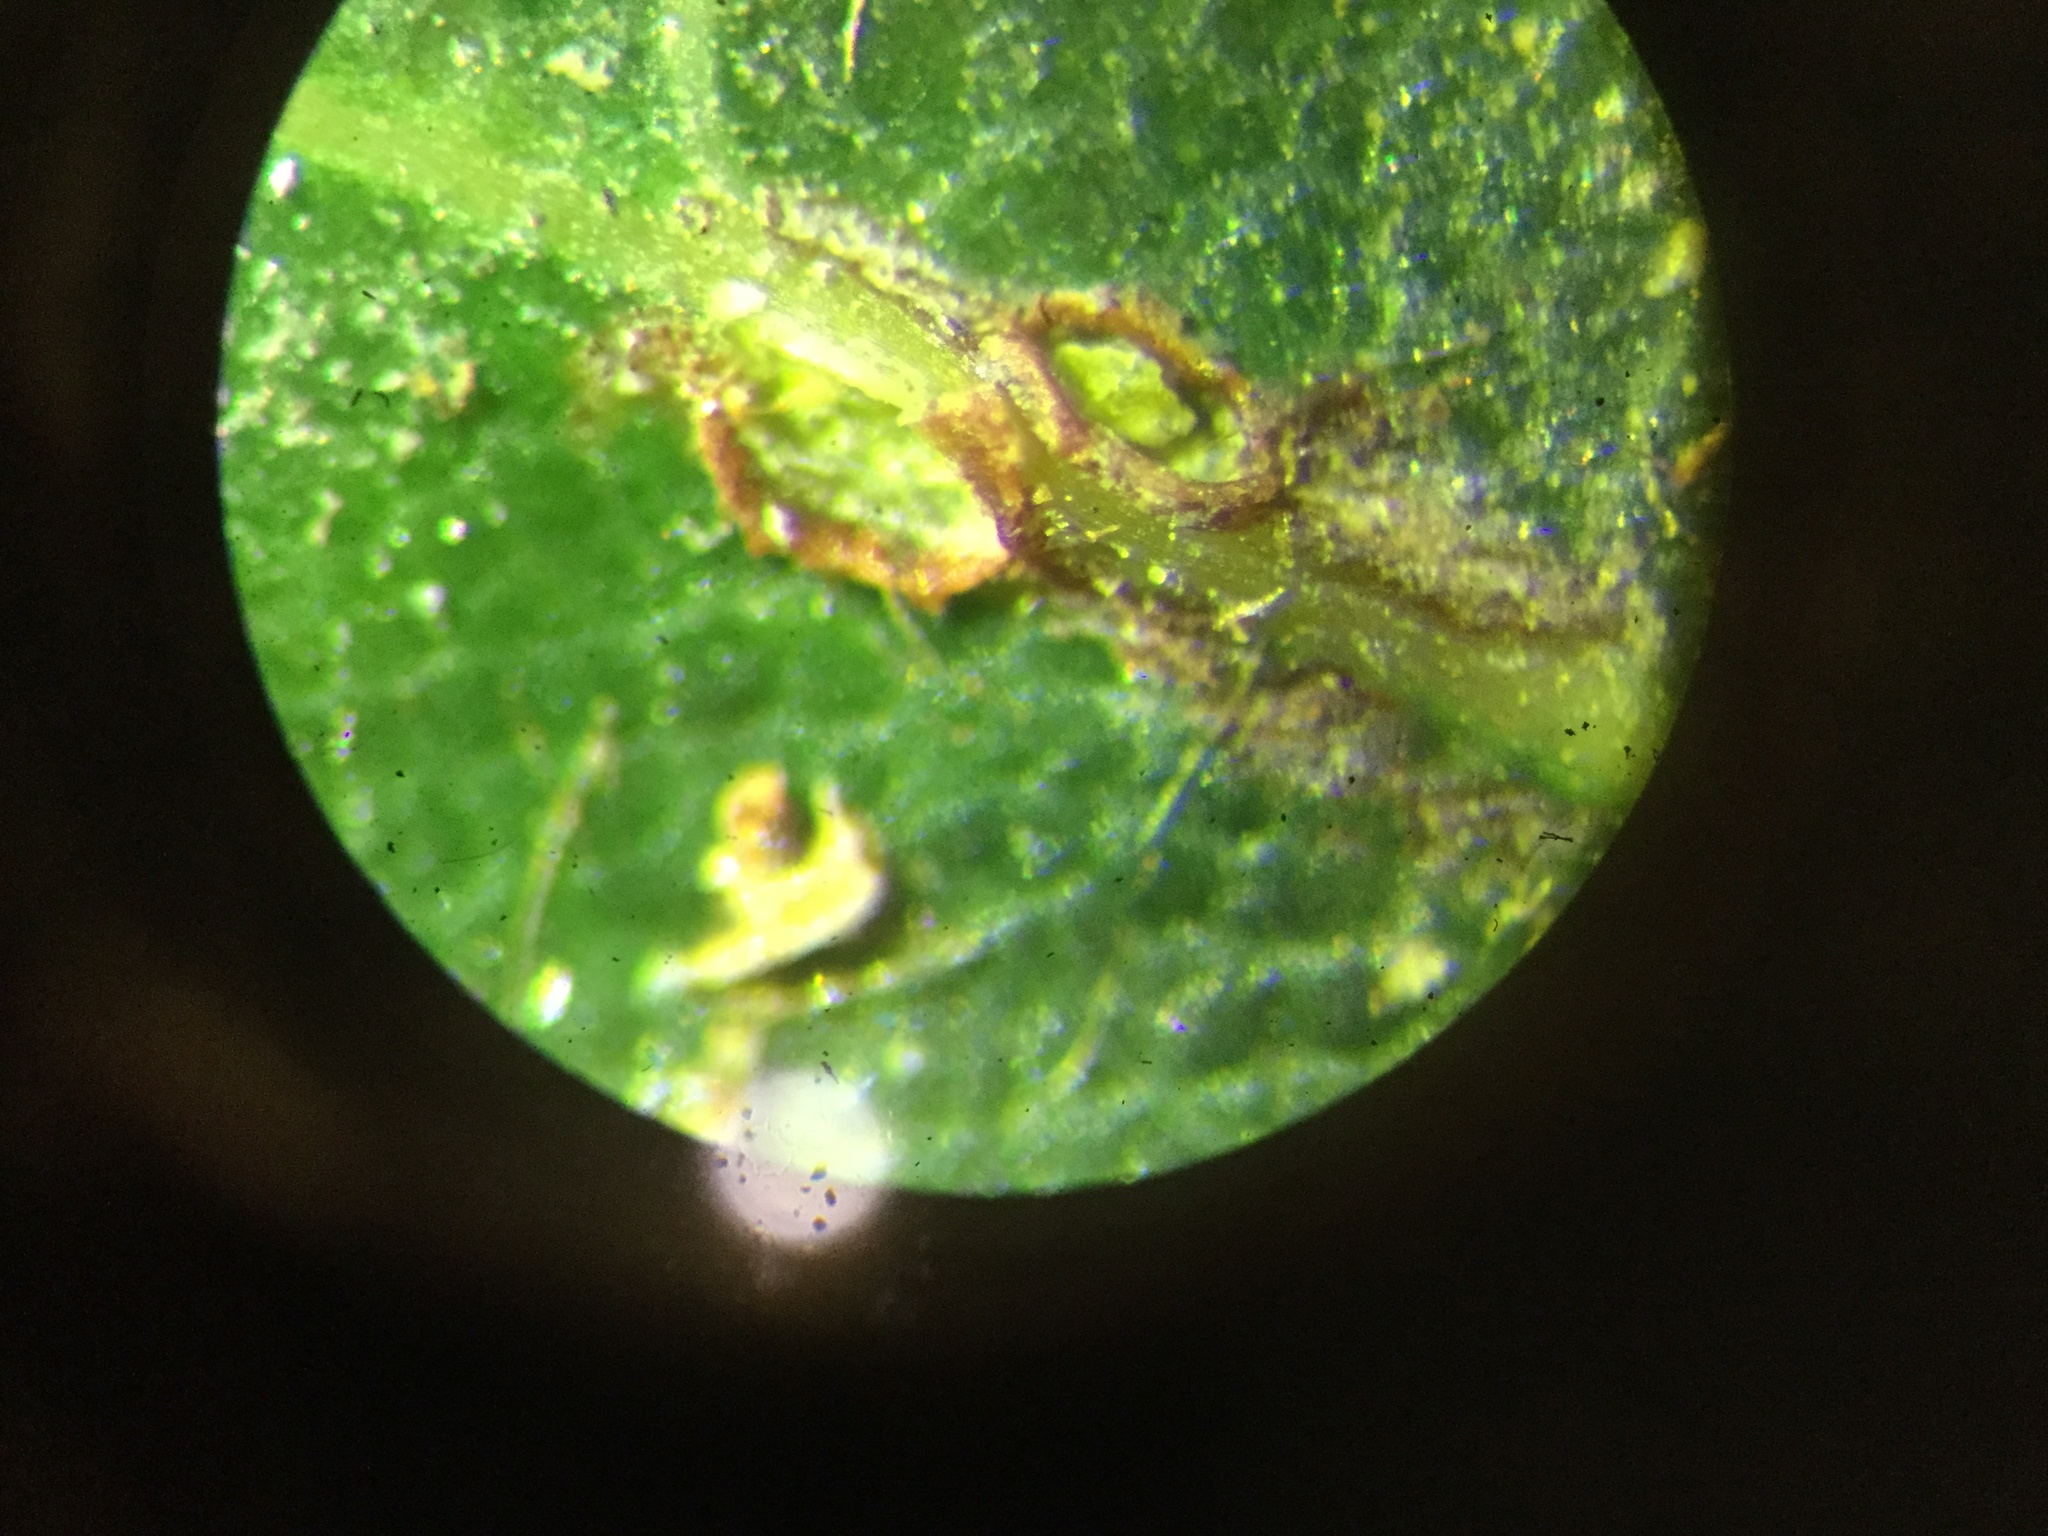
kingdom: Animalia
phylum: Arthropoda
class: Insecta
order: Hymenoptera
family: Cynipidae
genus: Callirhytis
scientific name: Callirhytis
